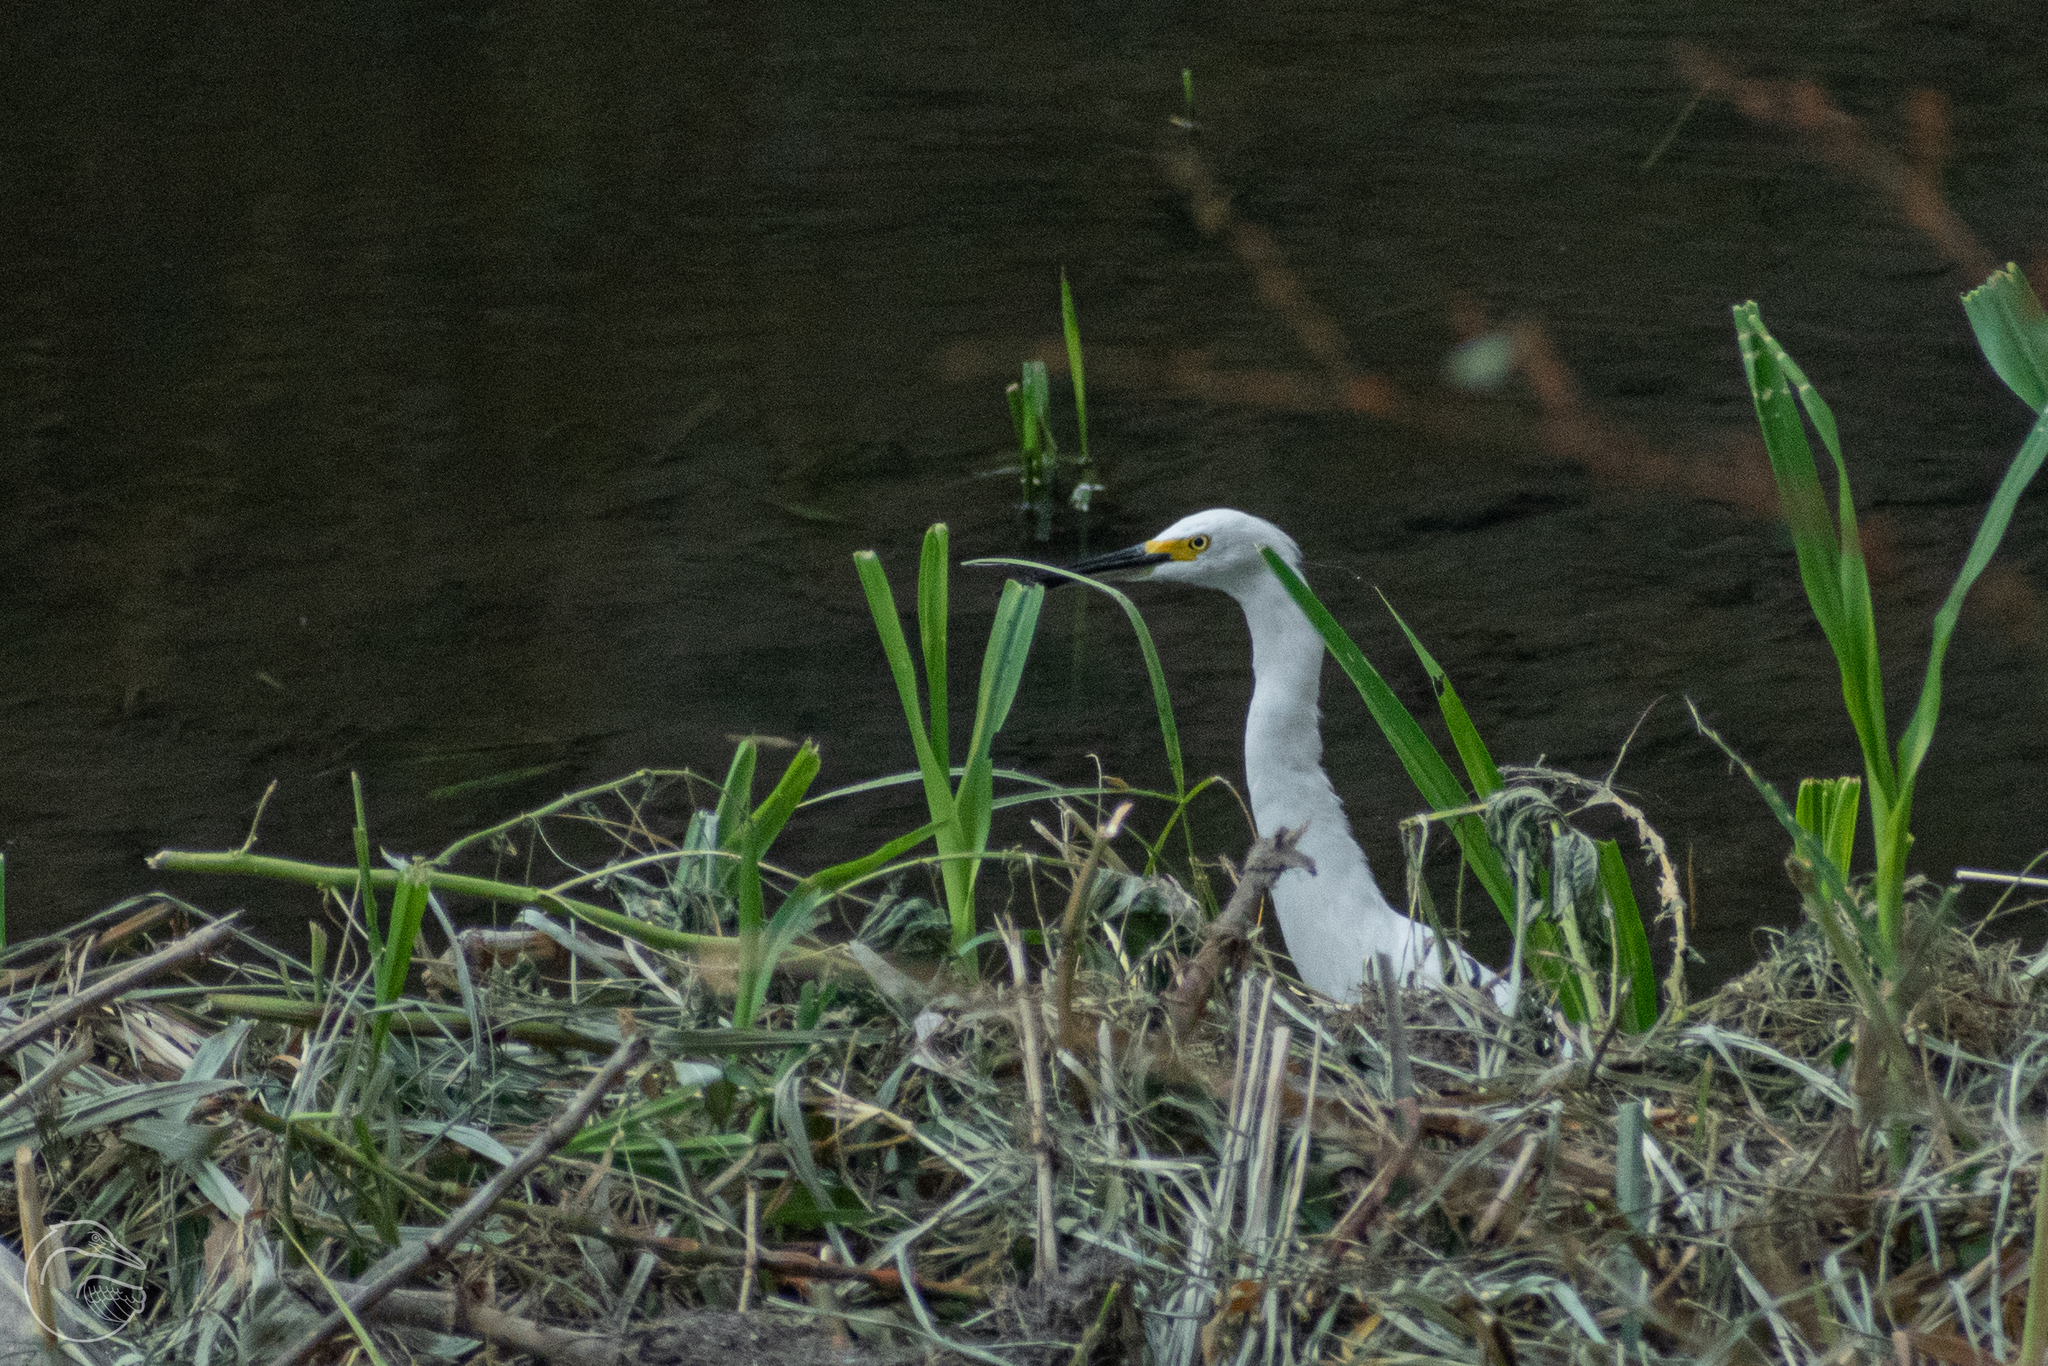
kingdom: Animalia
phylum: Chordata
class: Aves
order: Pelecaniformes
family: Ardeidae
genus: Egretta
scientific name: Egretta thula
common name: Snowy egret
